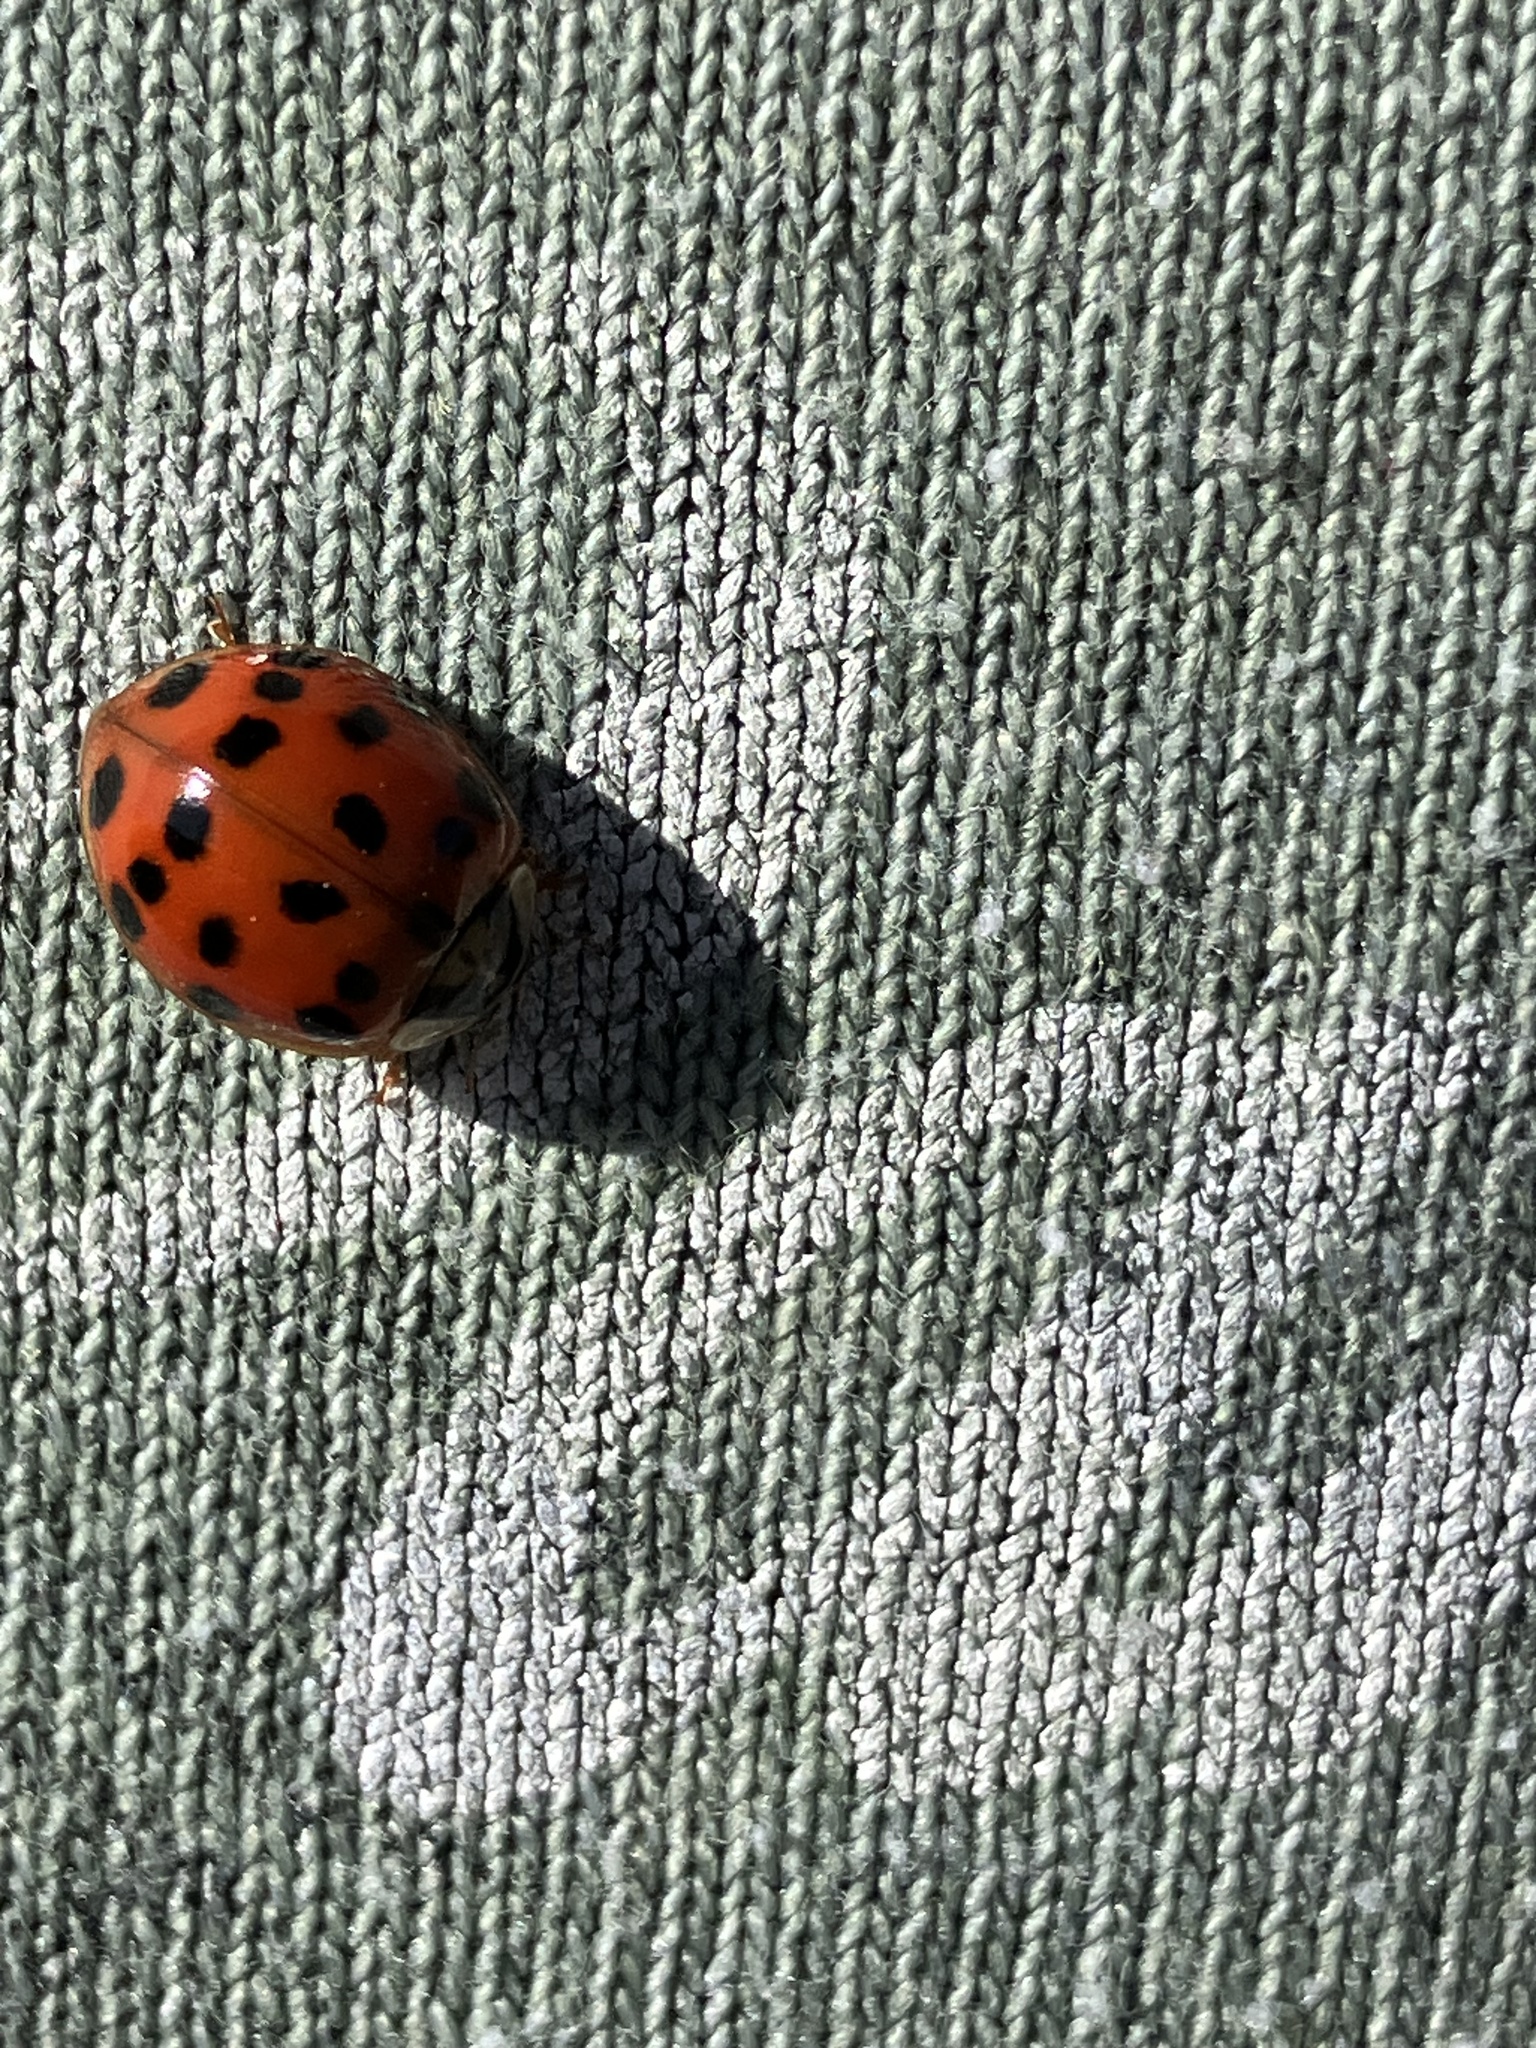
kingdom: Animalia
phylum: Arthropoda
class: Insecta
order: Coleoptera
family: Coccinellidae
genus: Harmonia
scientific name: Harmonia axyridis
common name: Harlequin ladybird
